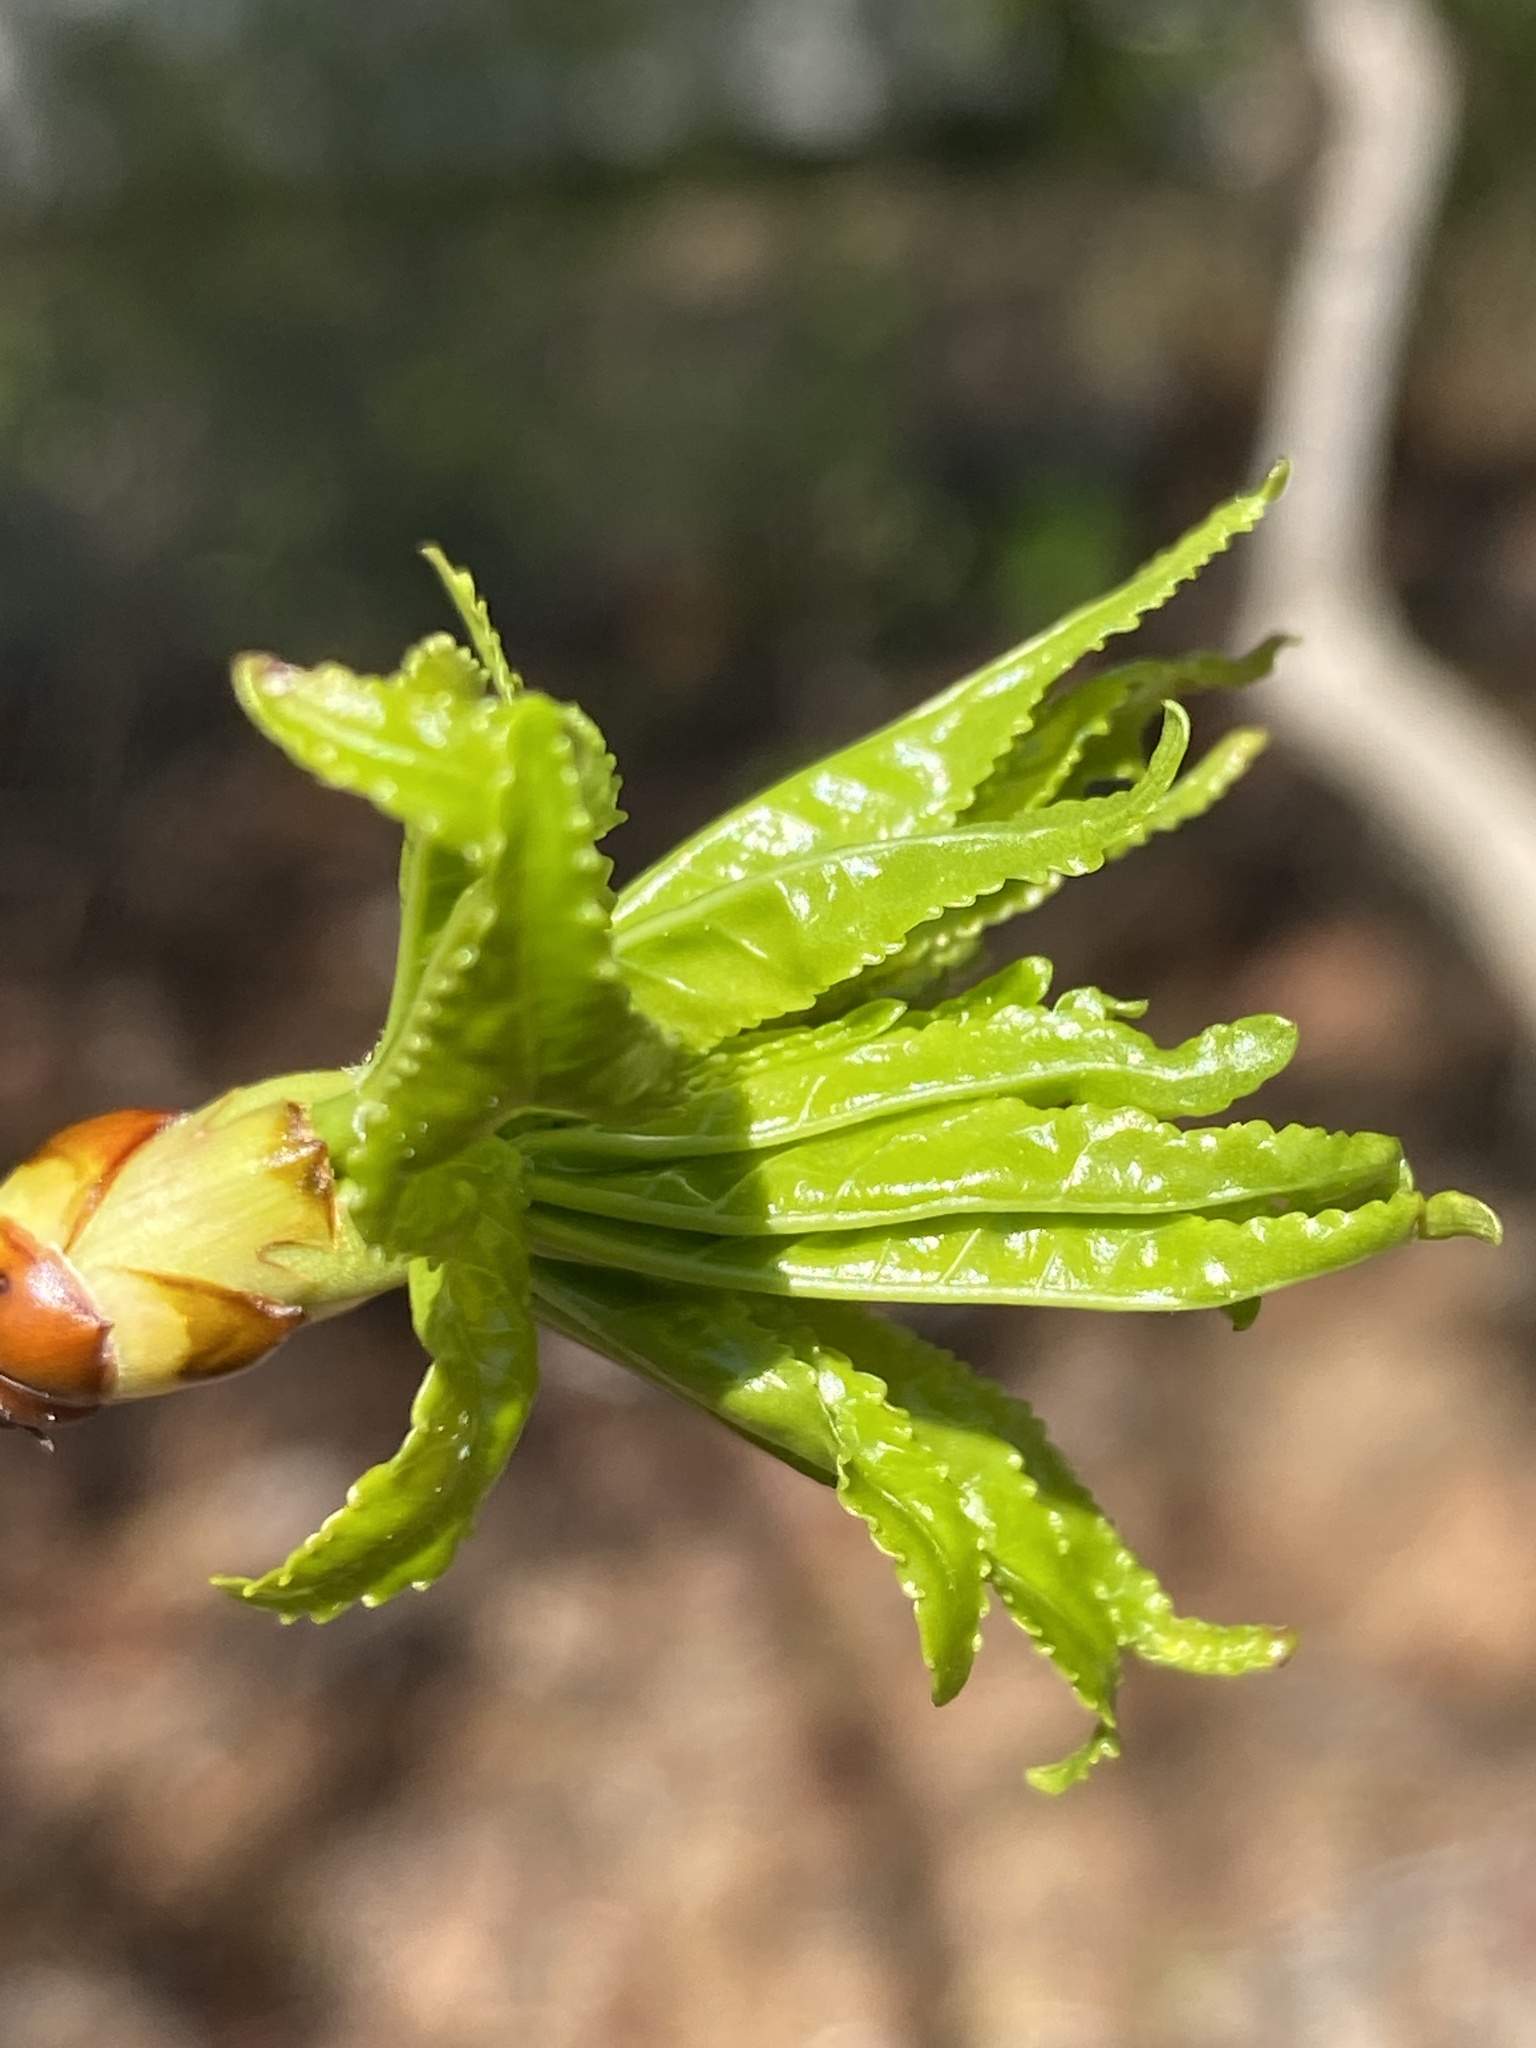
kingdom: Plantae
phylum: Tracheophyta
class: Magnoliopsida
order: Saxifragales
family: Altingiaceae
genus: Liquidambar
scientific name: Liquidambar styraciflua
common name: Sweet gum
